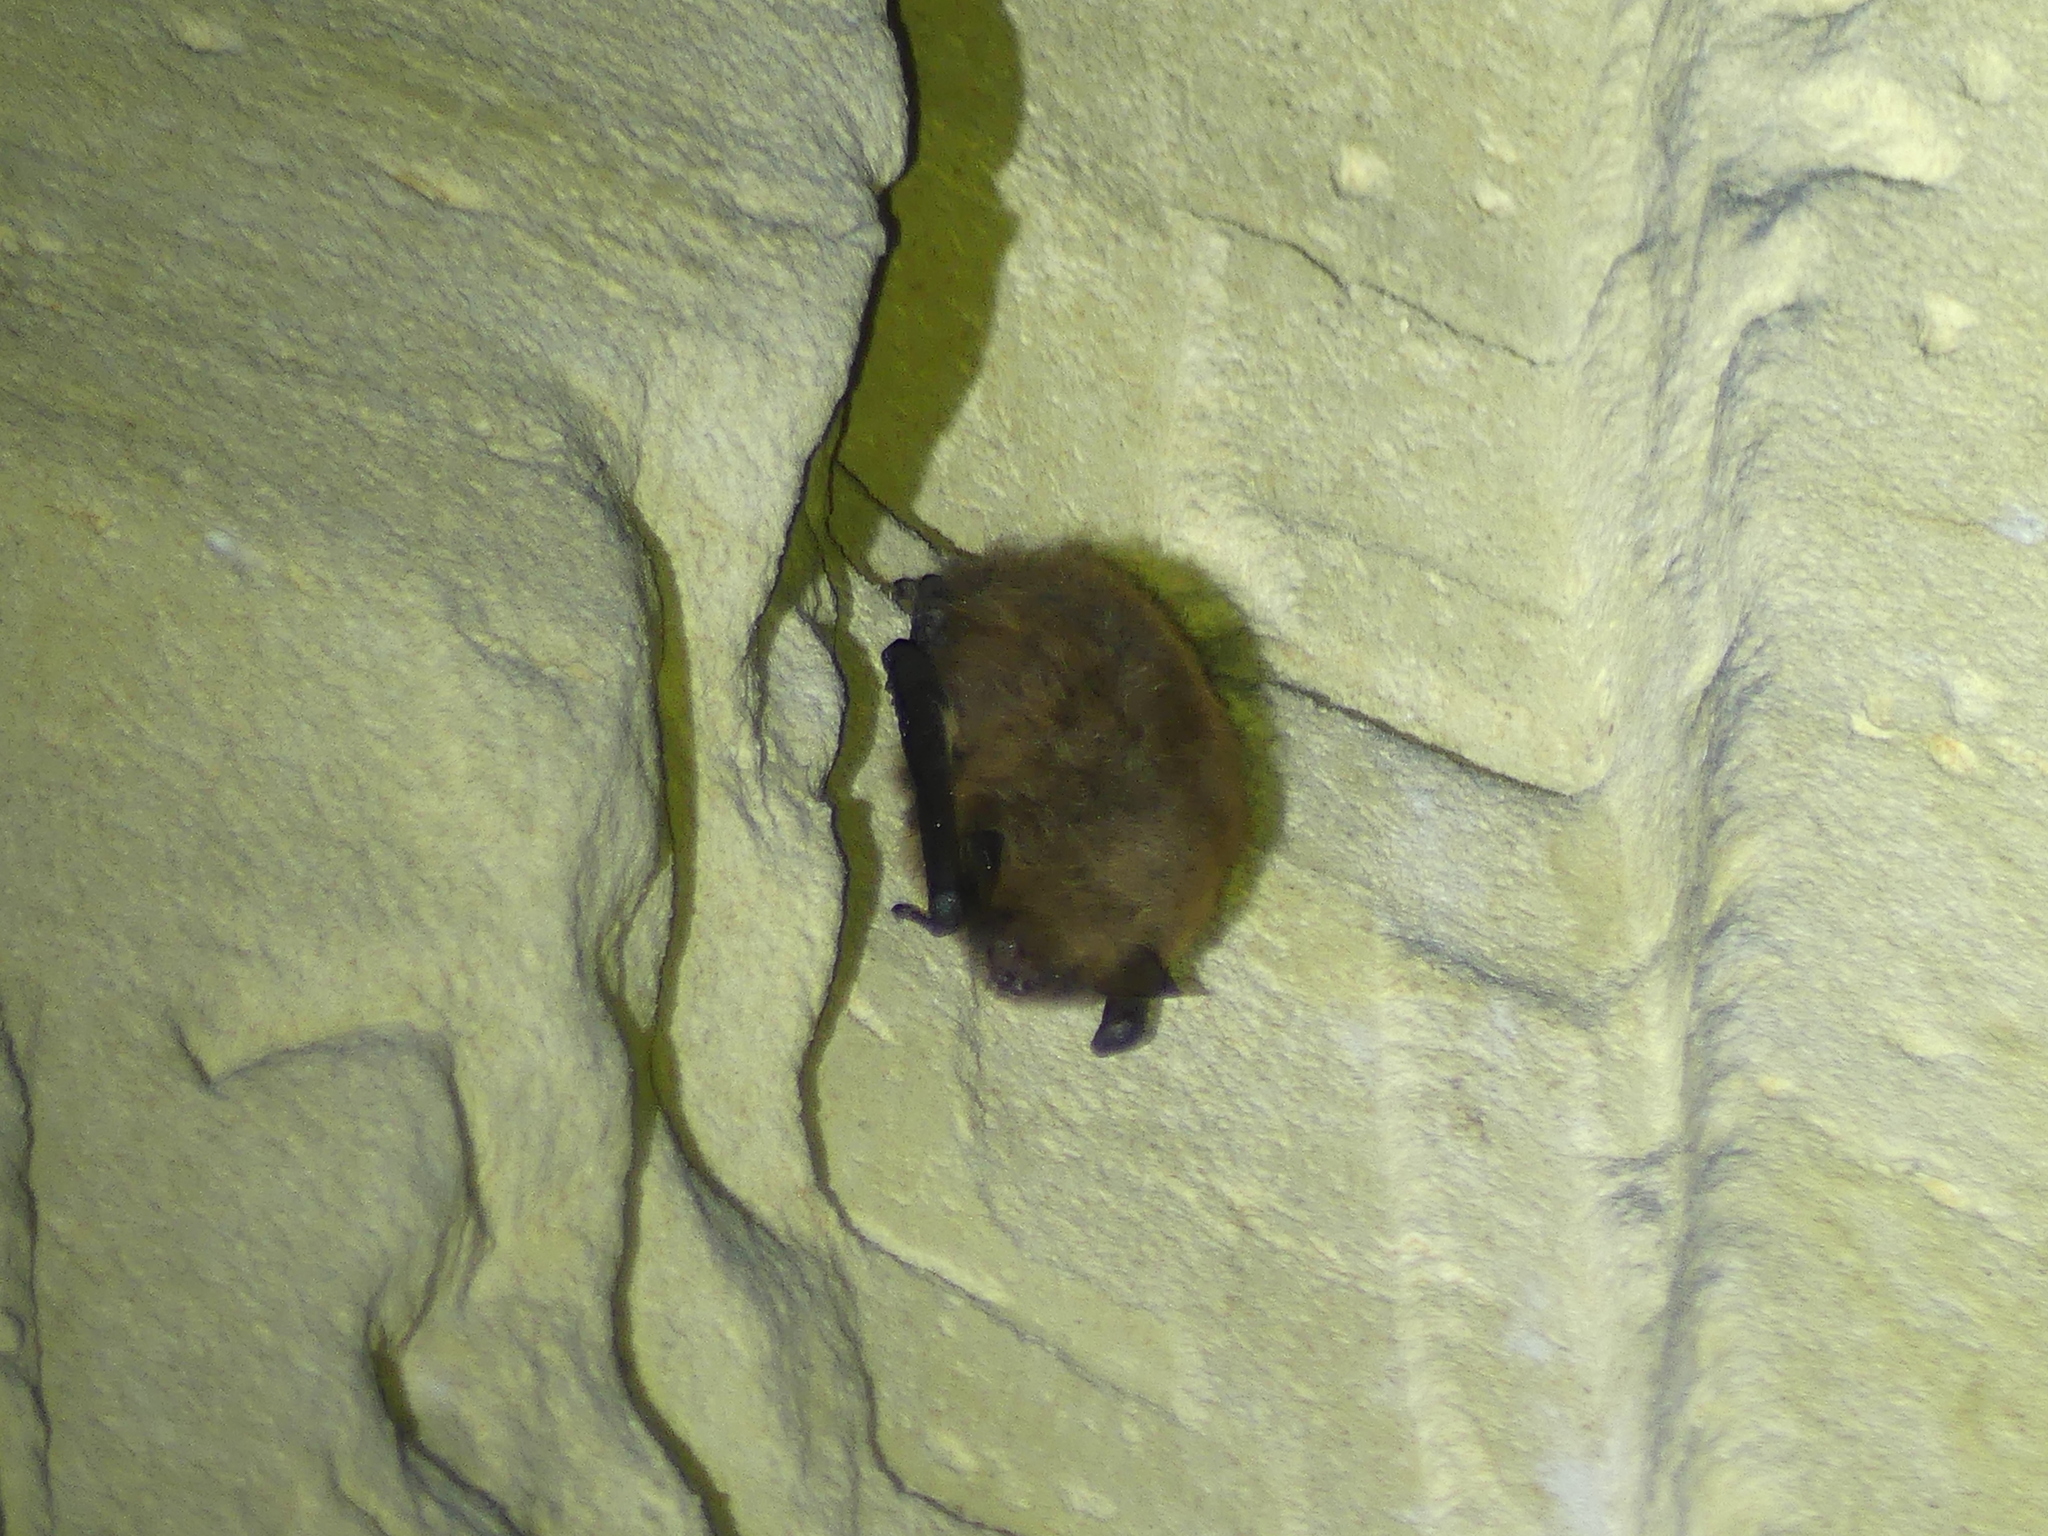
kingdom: Animalia
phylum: Chordata
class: Mammalia
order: Chiroptera
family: Vespertilionidae
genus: Myotis
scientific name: Myotis brandtii
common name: Brandt's myotis
